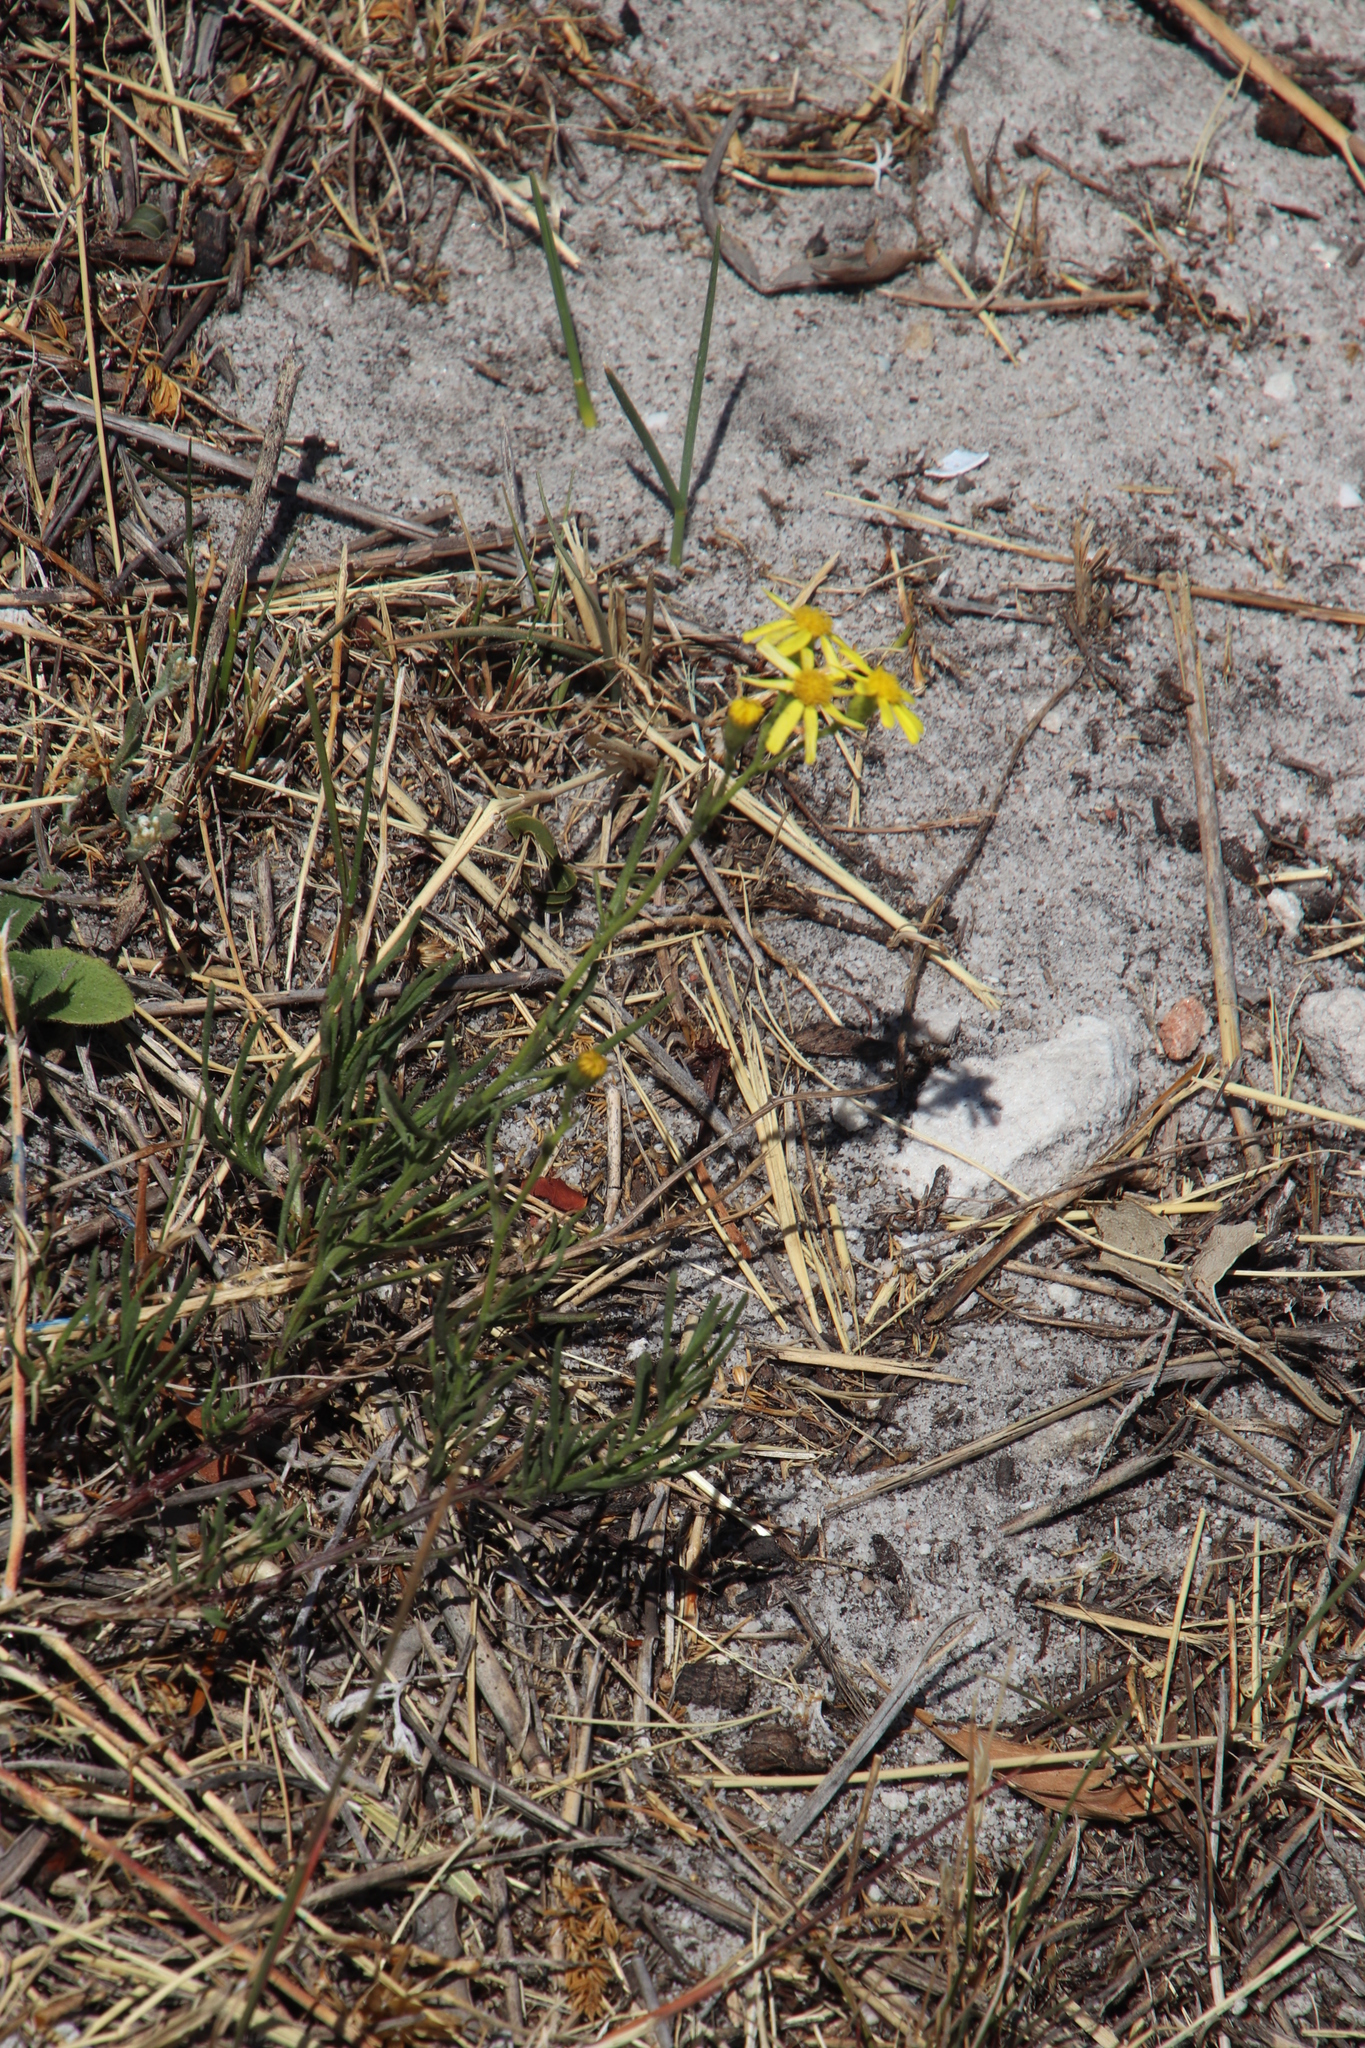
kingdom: Plantae
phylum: Tracheophyta
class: Magnoliopsida
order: Asterales
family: Asteraceae
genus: Senecio
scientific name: Senecio burchellii
